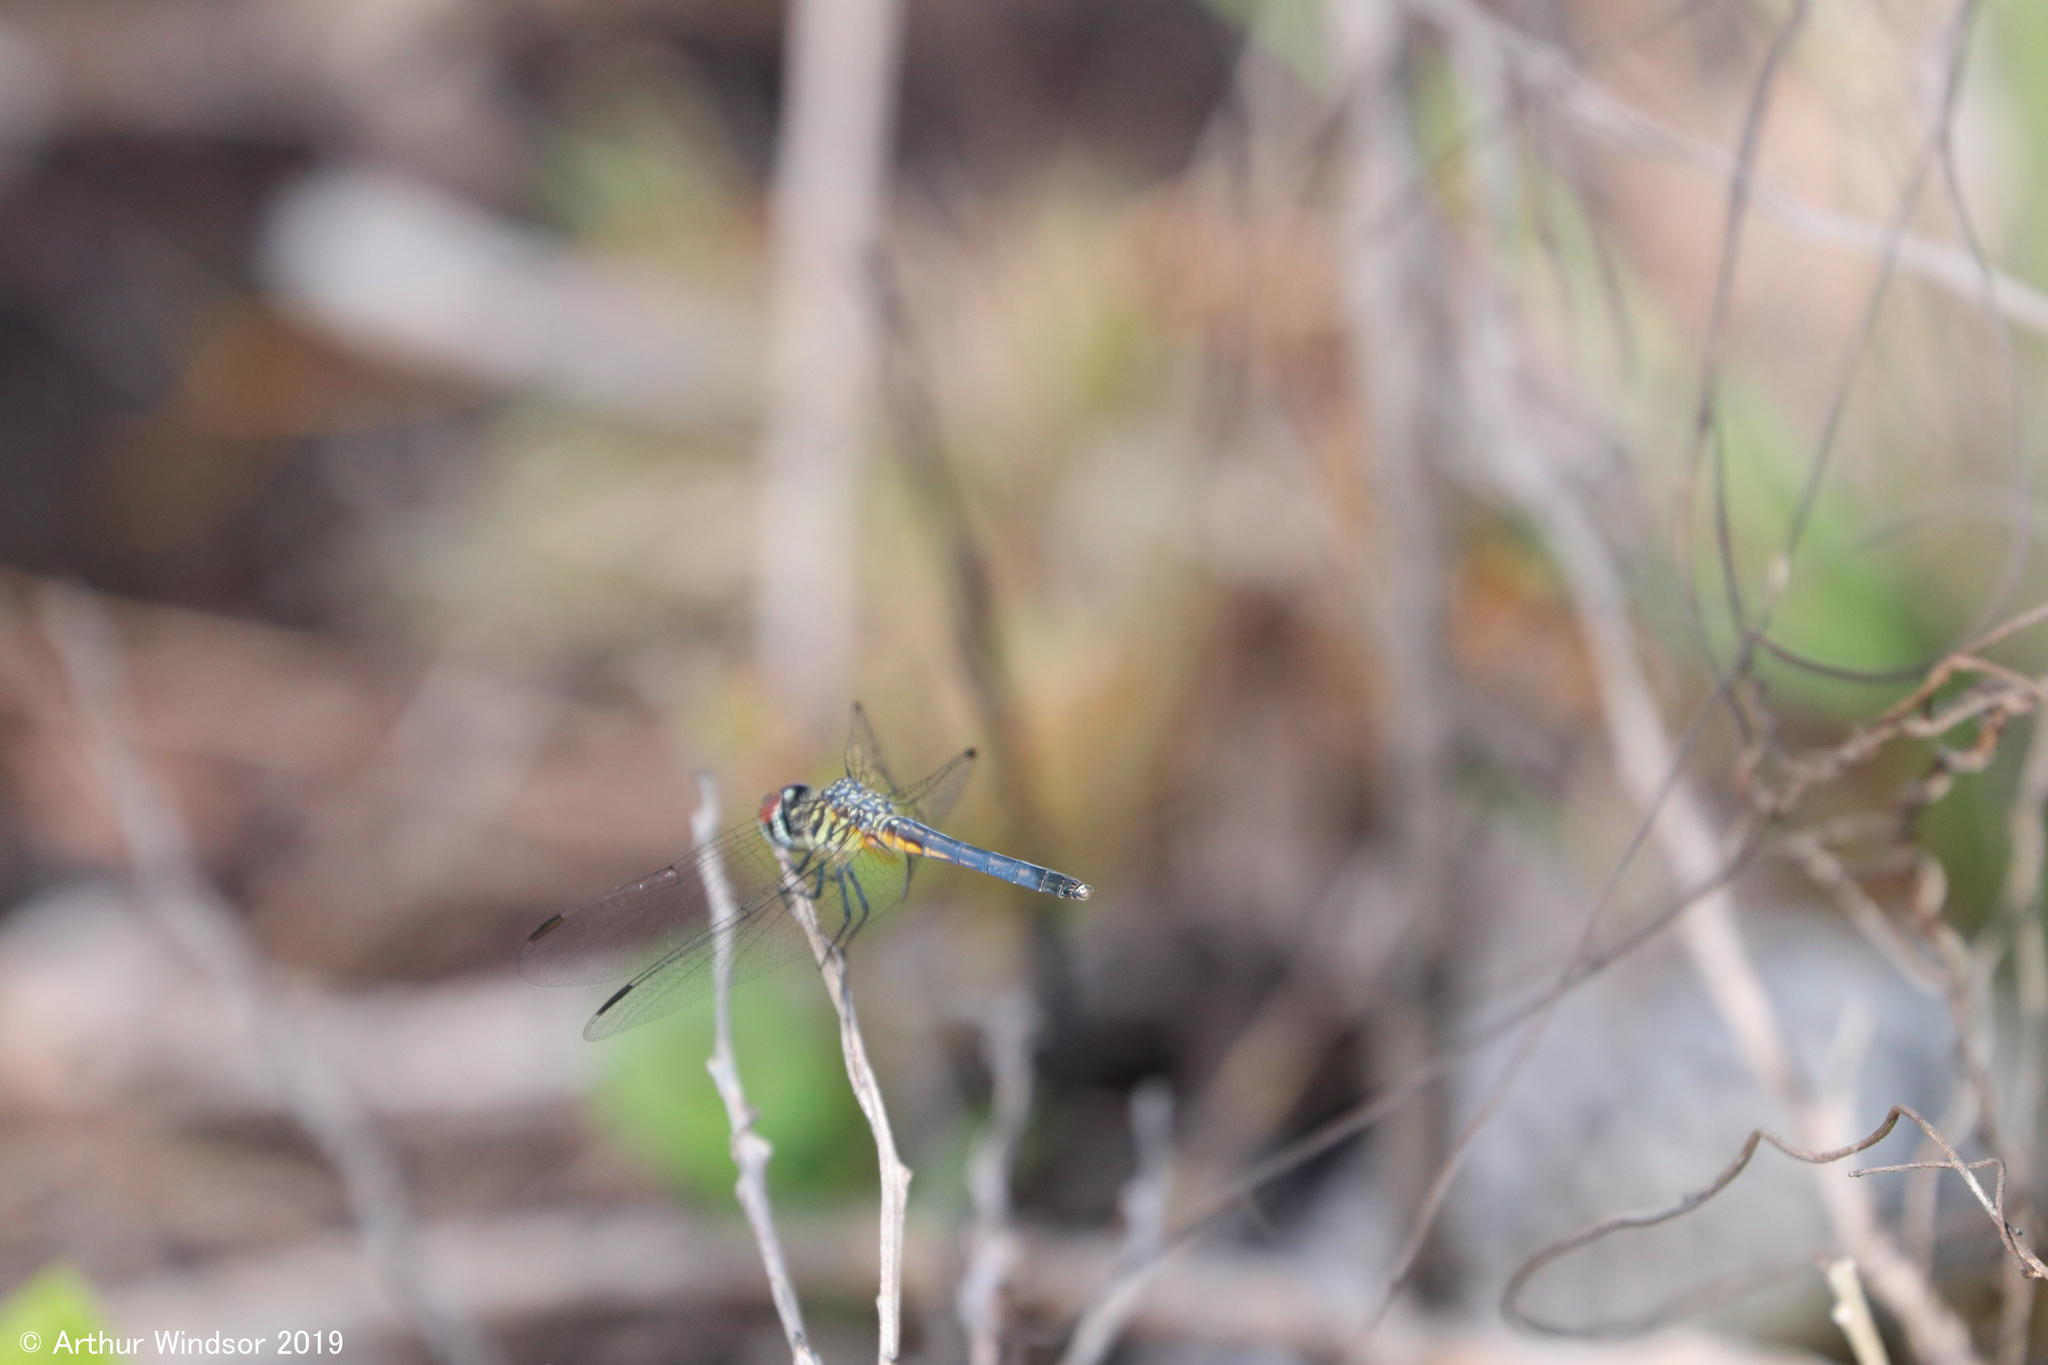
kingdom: Animalia
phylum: Arthropoda
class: Insecta
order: Odonata
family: Libellulidae
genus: Pachydiplax
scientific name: Pachydiplax longipennis
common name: Blue dasher
